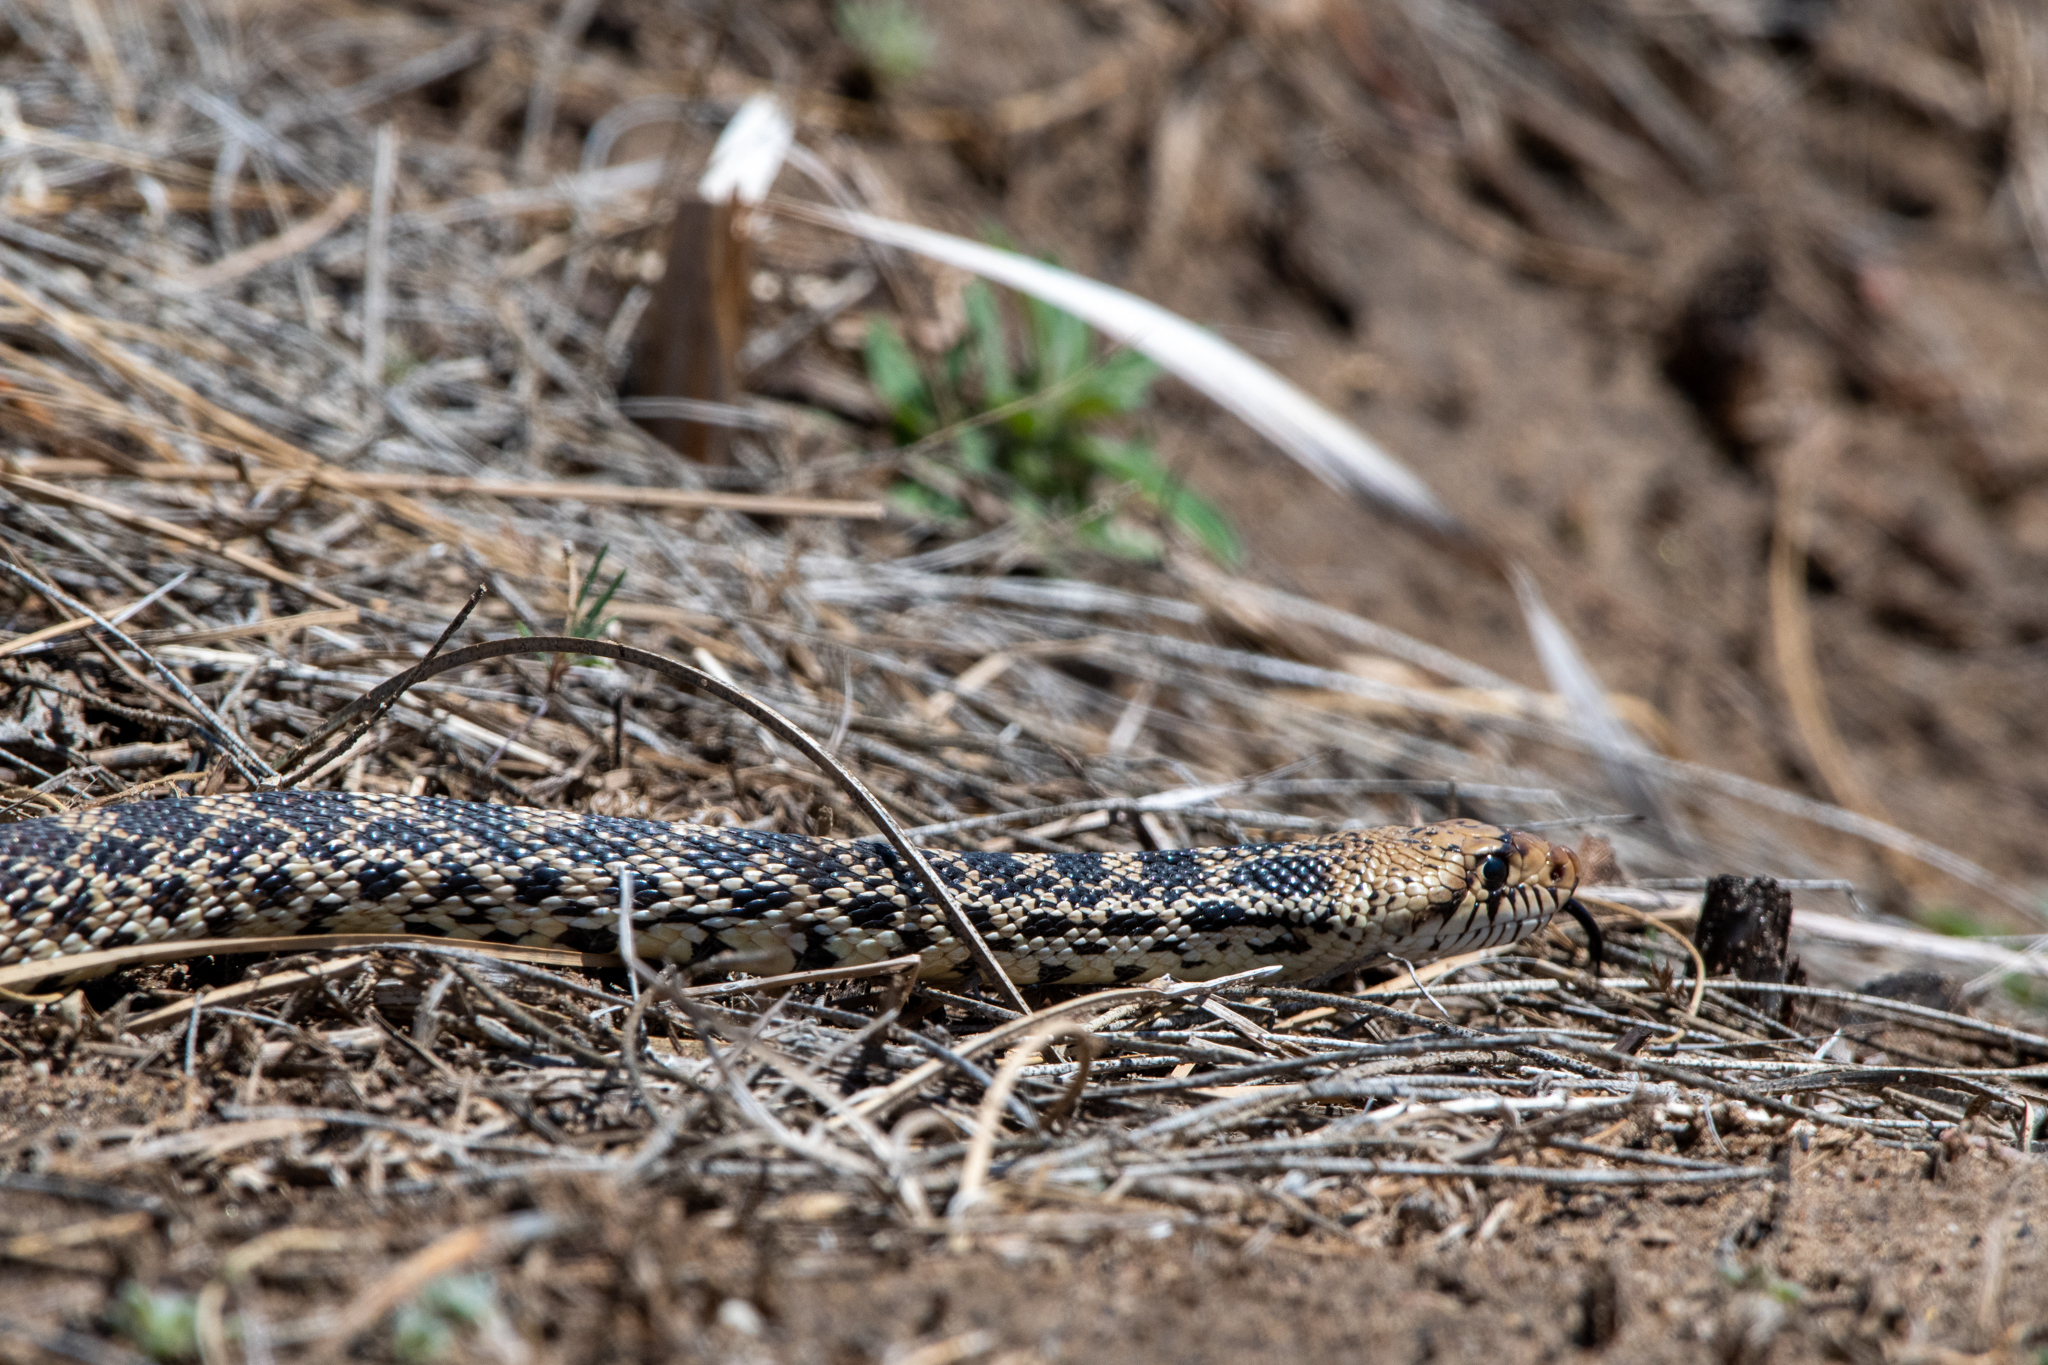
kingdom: Animalia
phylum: Chordata
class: Squamata
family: Colubridae
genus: Pituophis
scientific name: Pituophis catenifer
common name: Gopher snake
